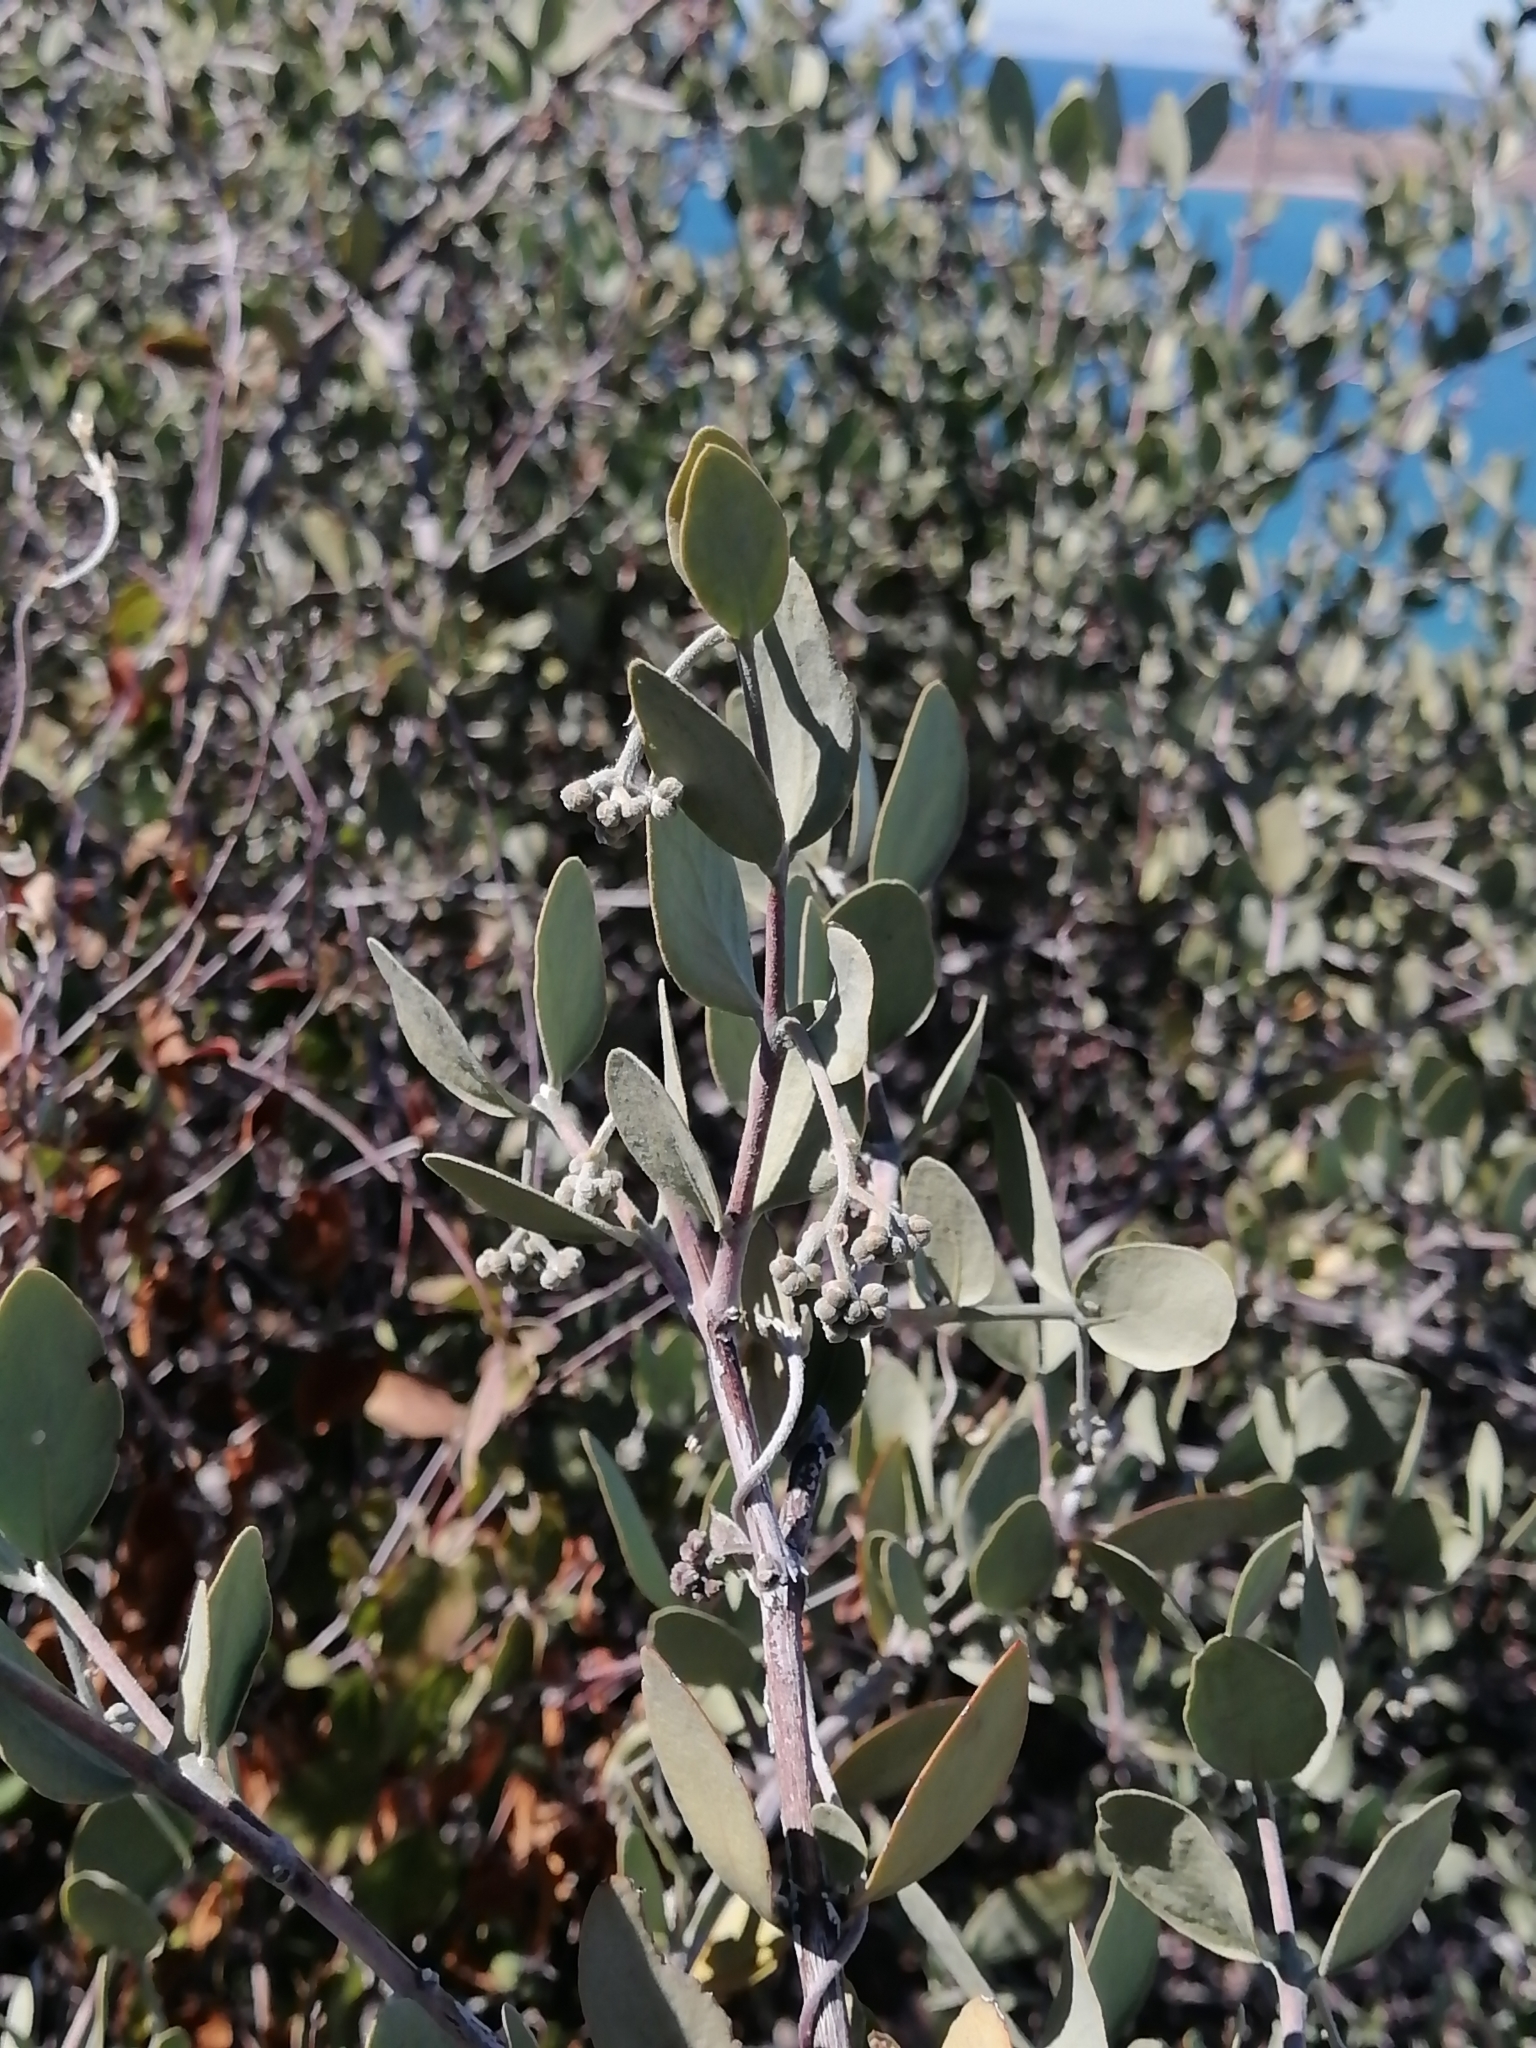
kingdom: Plantae
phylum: Tracheophyta
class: Magnoliopsida
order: Caryophyllales
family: Simmondsiaceae
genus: Simmondsia
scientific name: Simmondsia chinensis
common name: Jojoba
